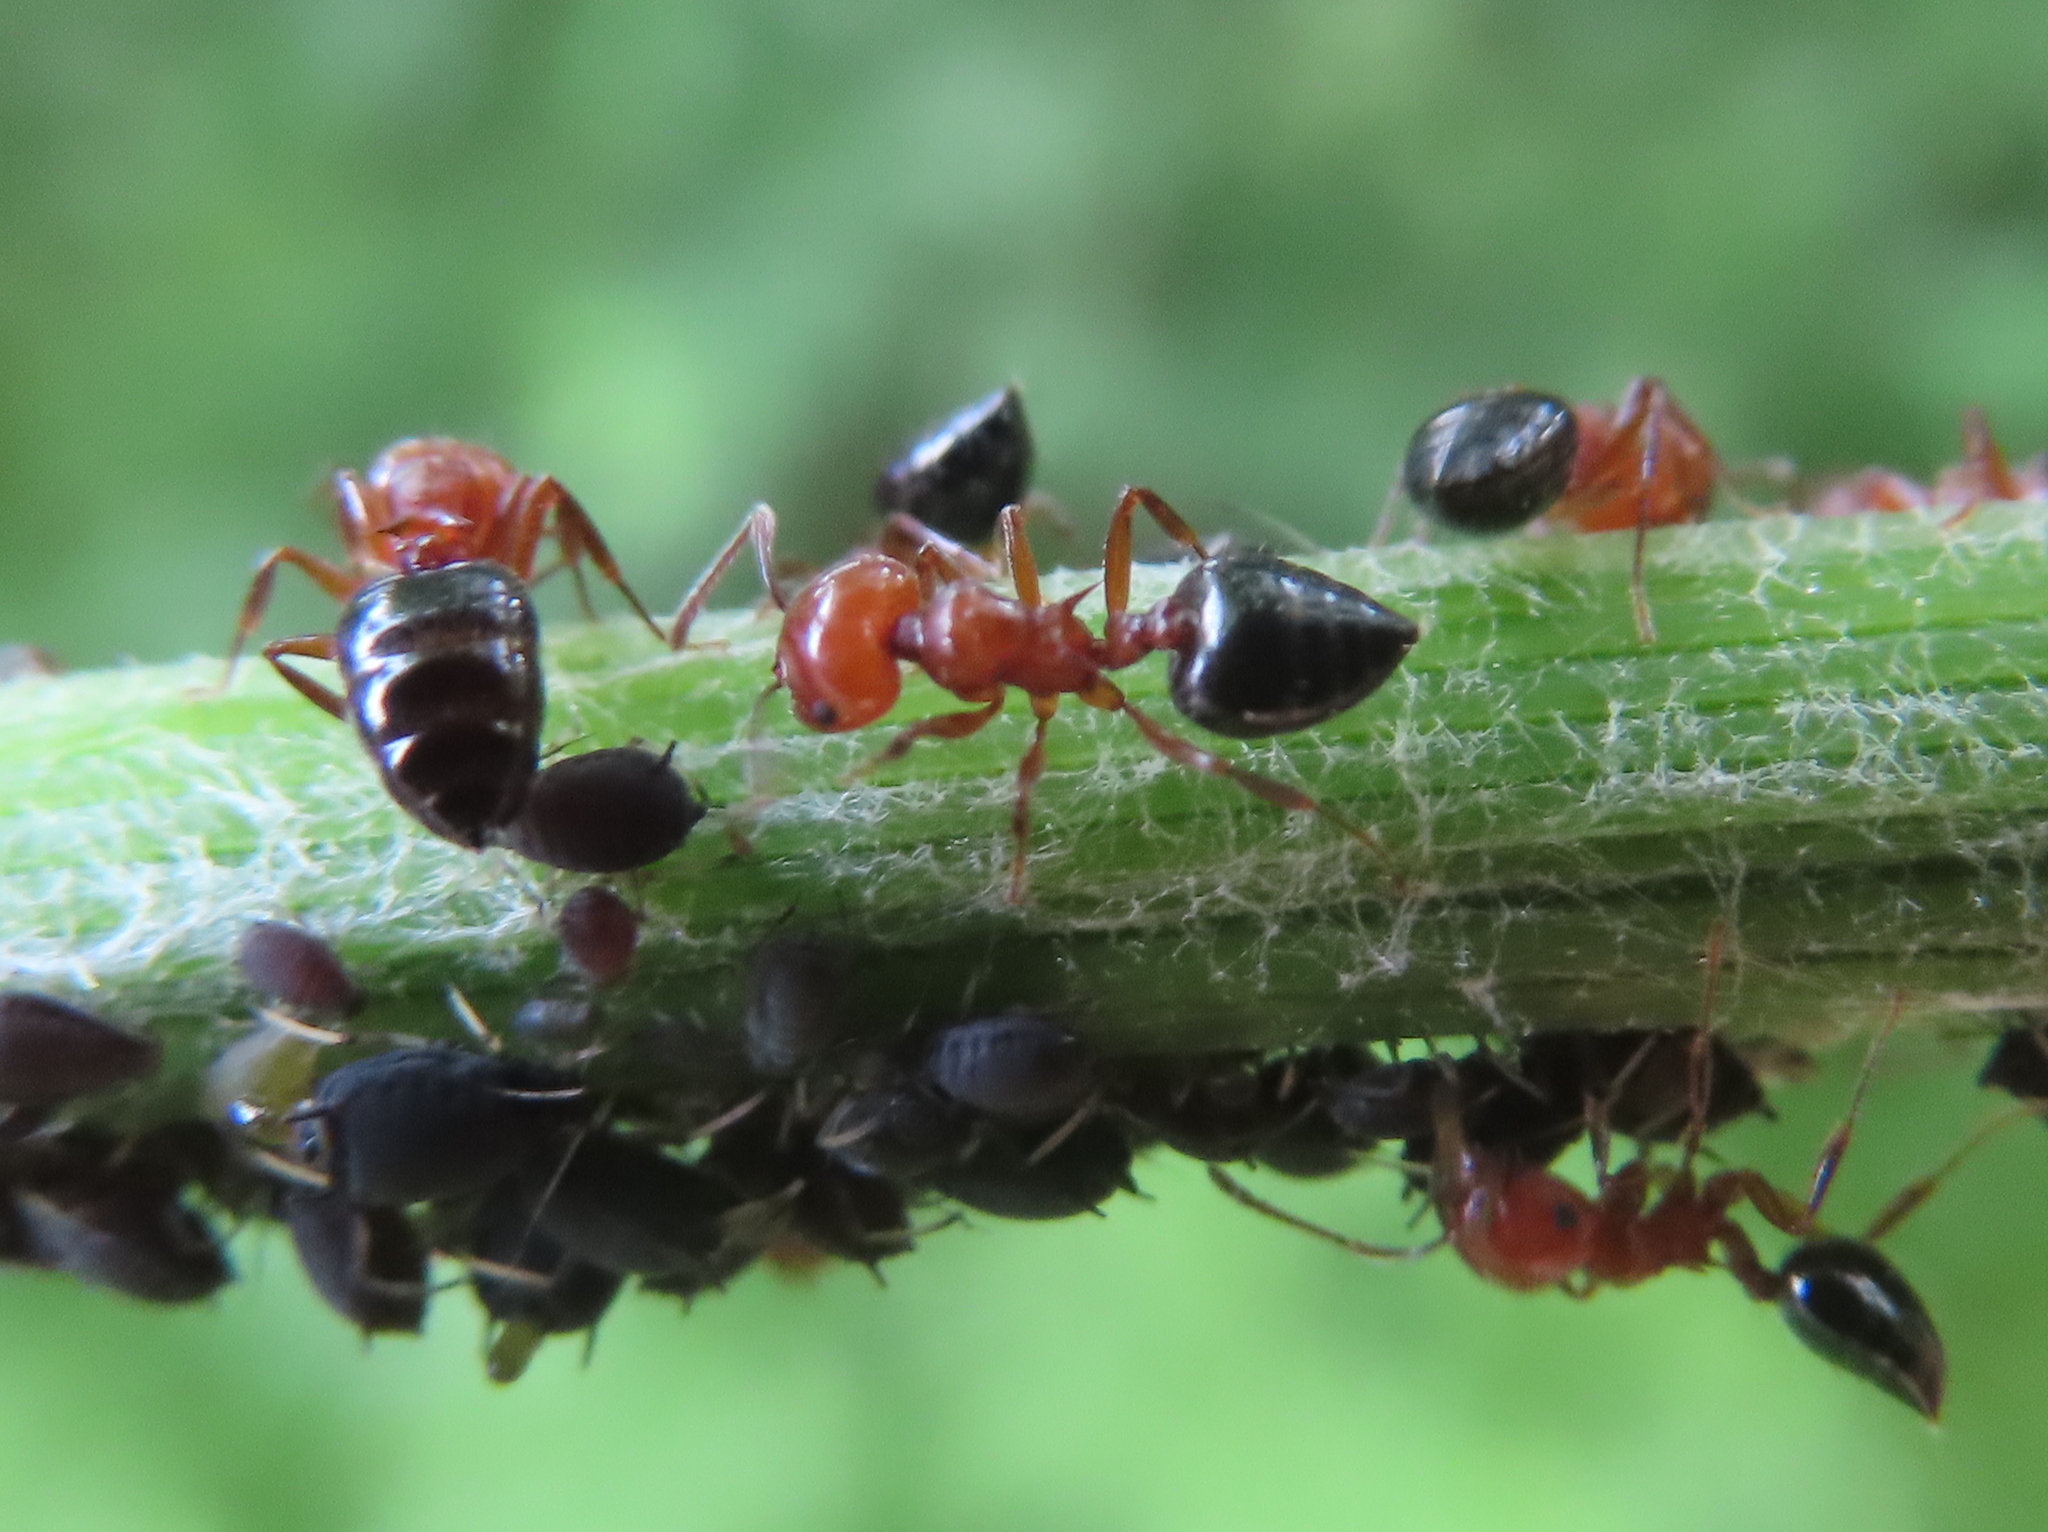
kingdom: Animalia
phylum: Arthropoda
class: Insecta
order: Hymenoptera
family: Formicidae
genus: Crematogaster
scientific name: Crematogaster laeviuscula
